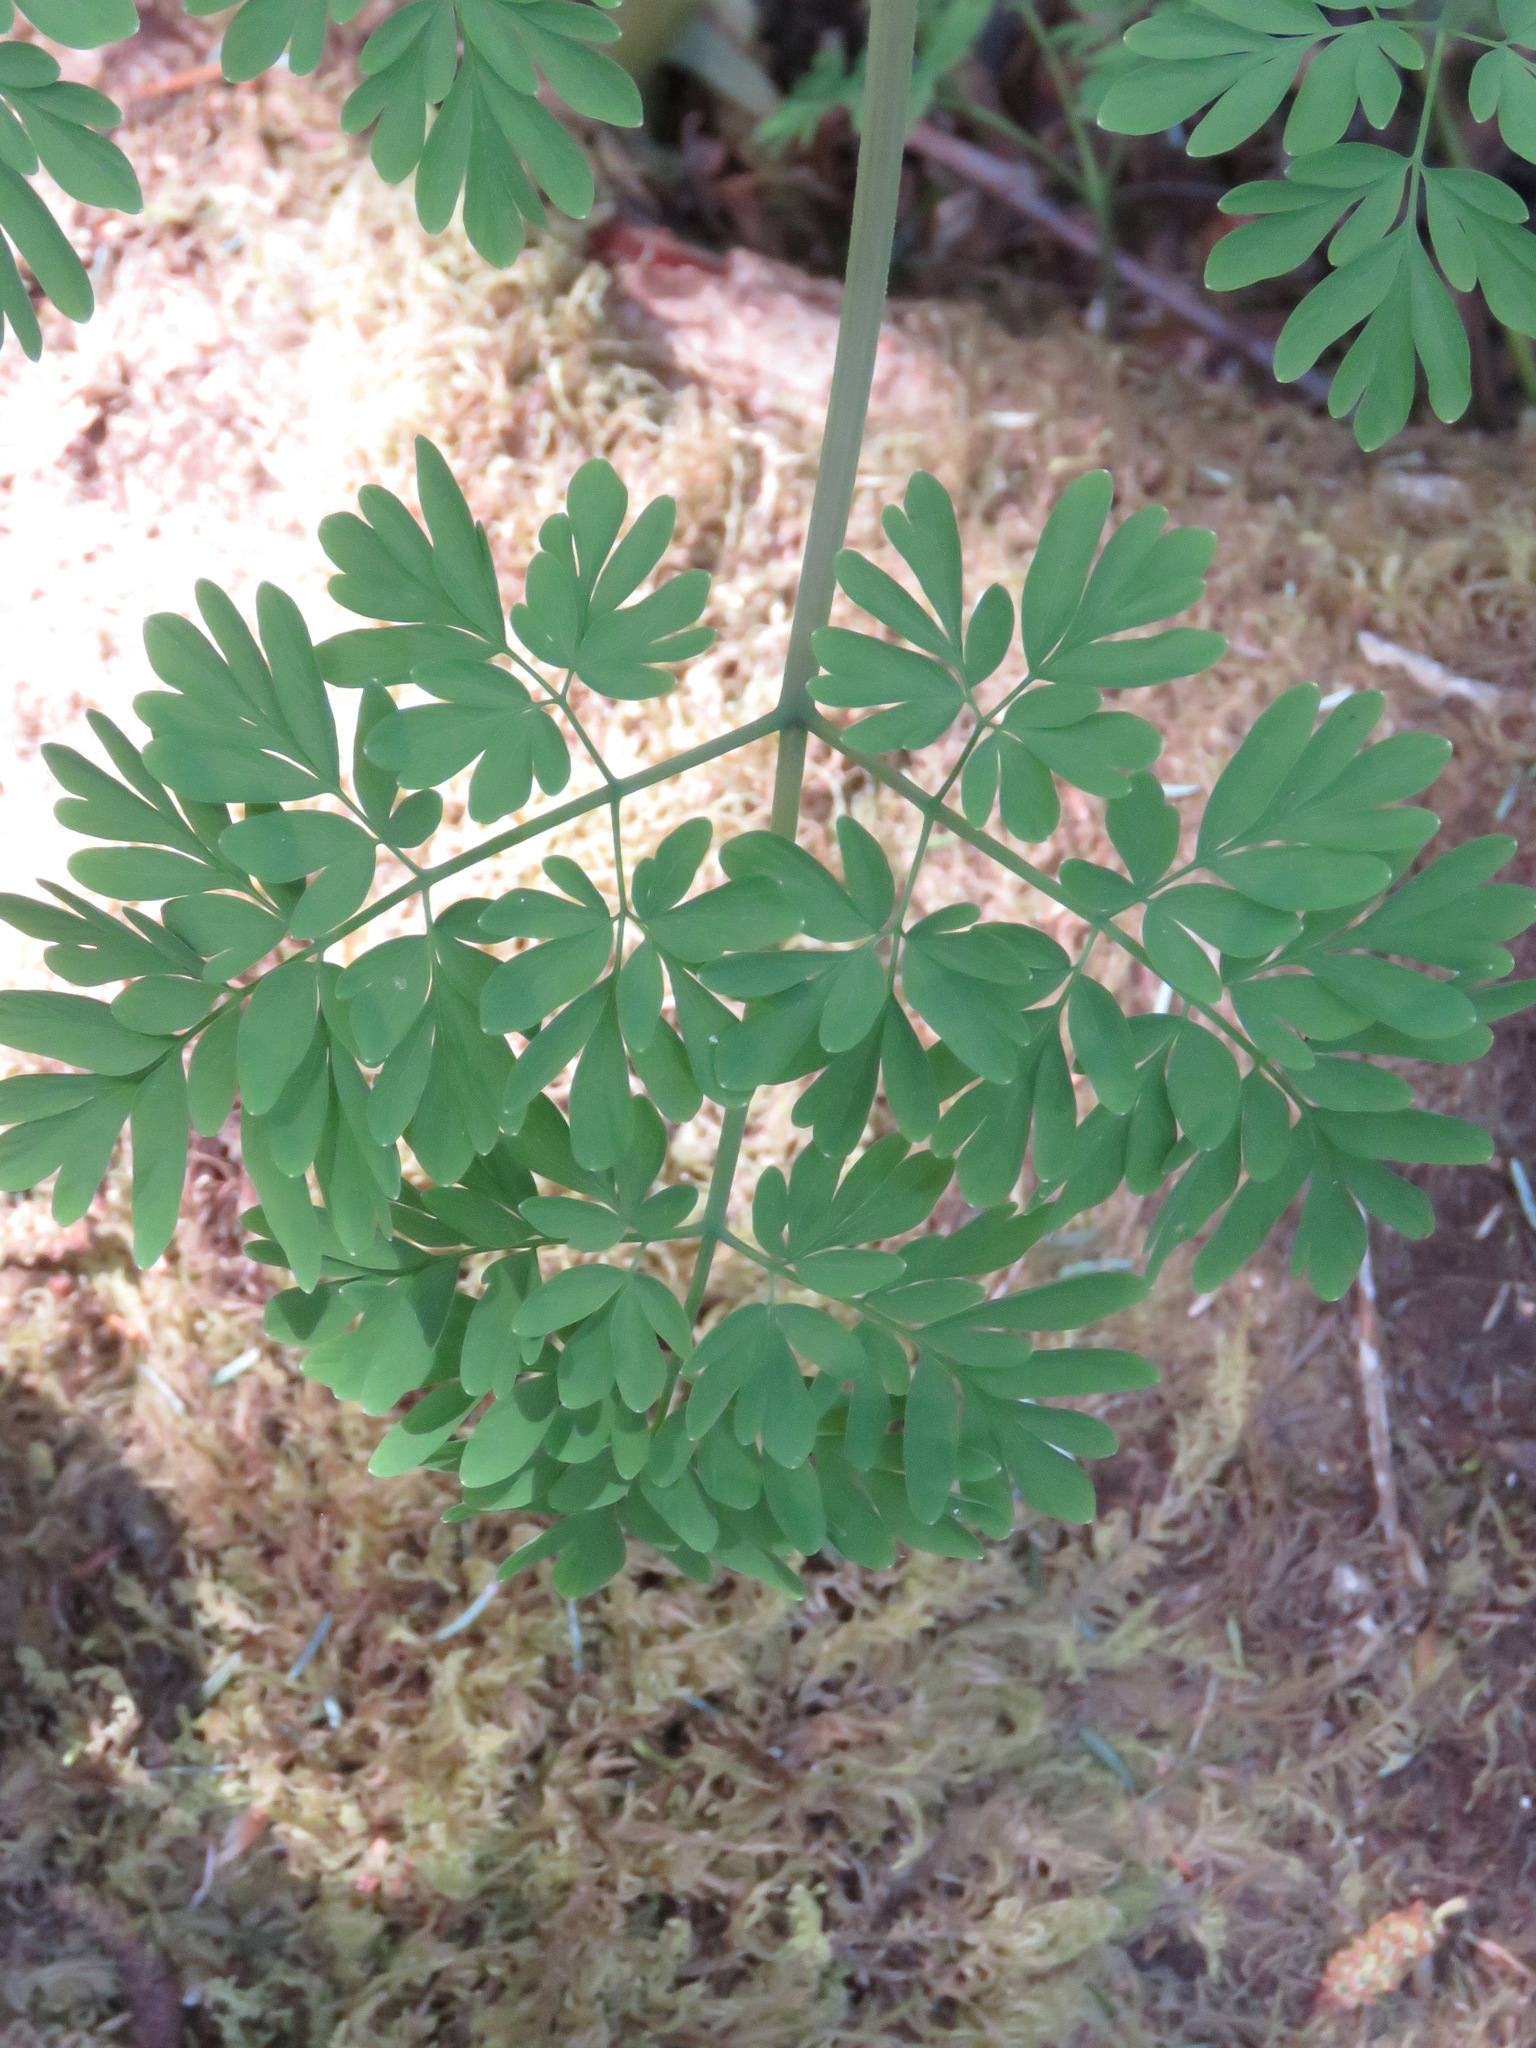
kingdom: Plantae
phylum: Tracheophyta
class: Magnoliopsida
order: Ranunculales
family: Papaveraceae
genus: Corydalis
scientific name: Corydalis scouleri
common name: Scouler's corydalis
